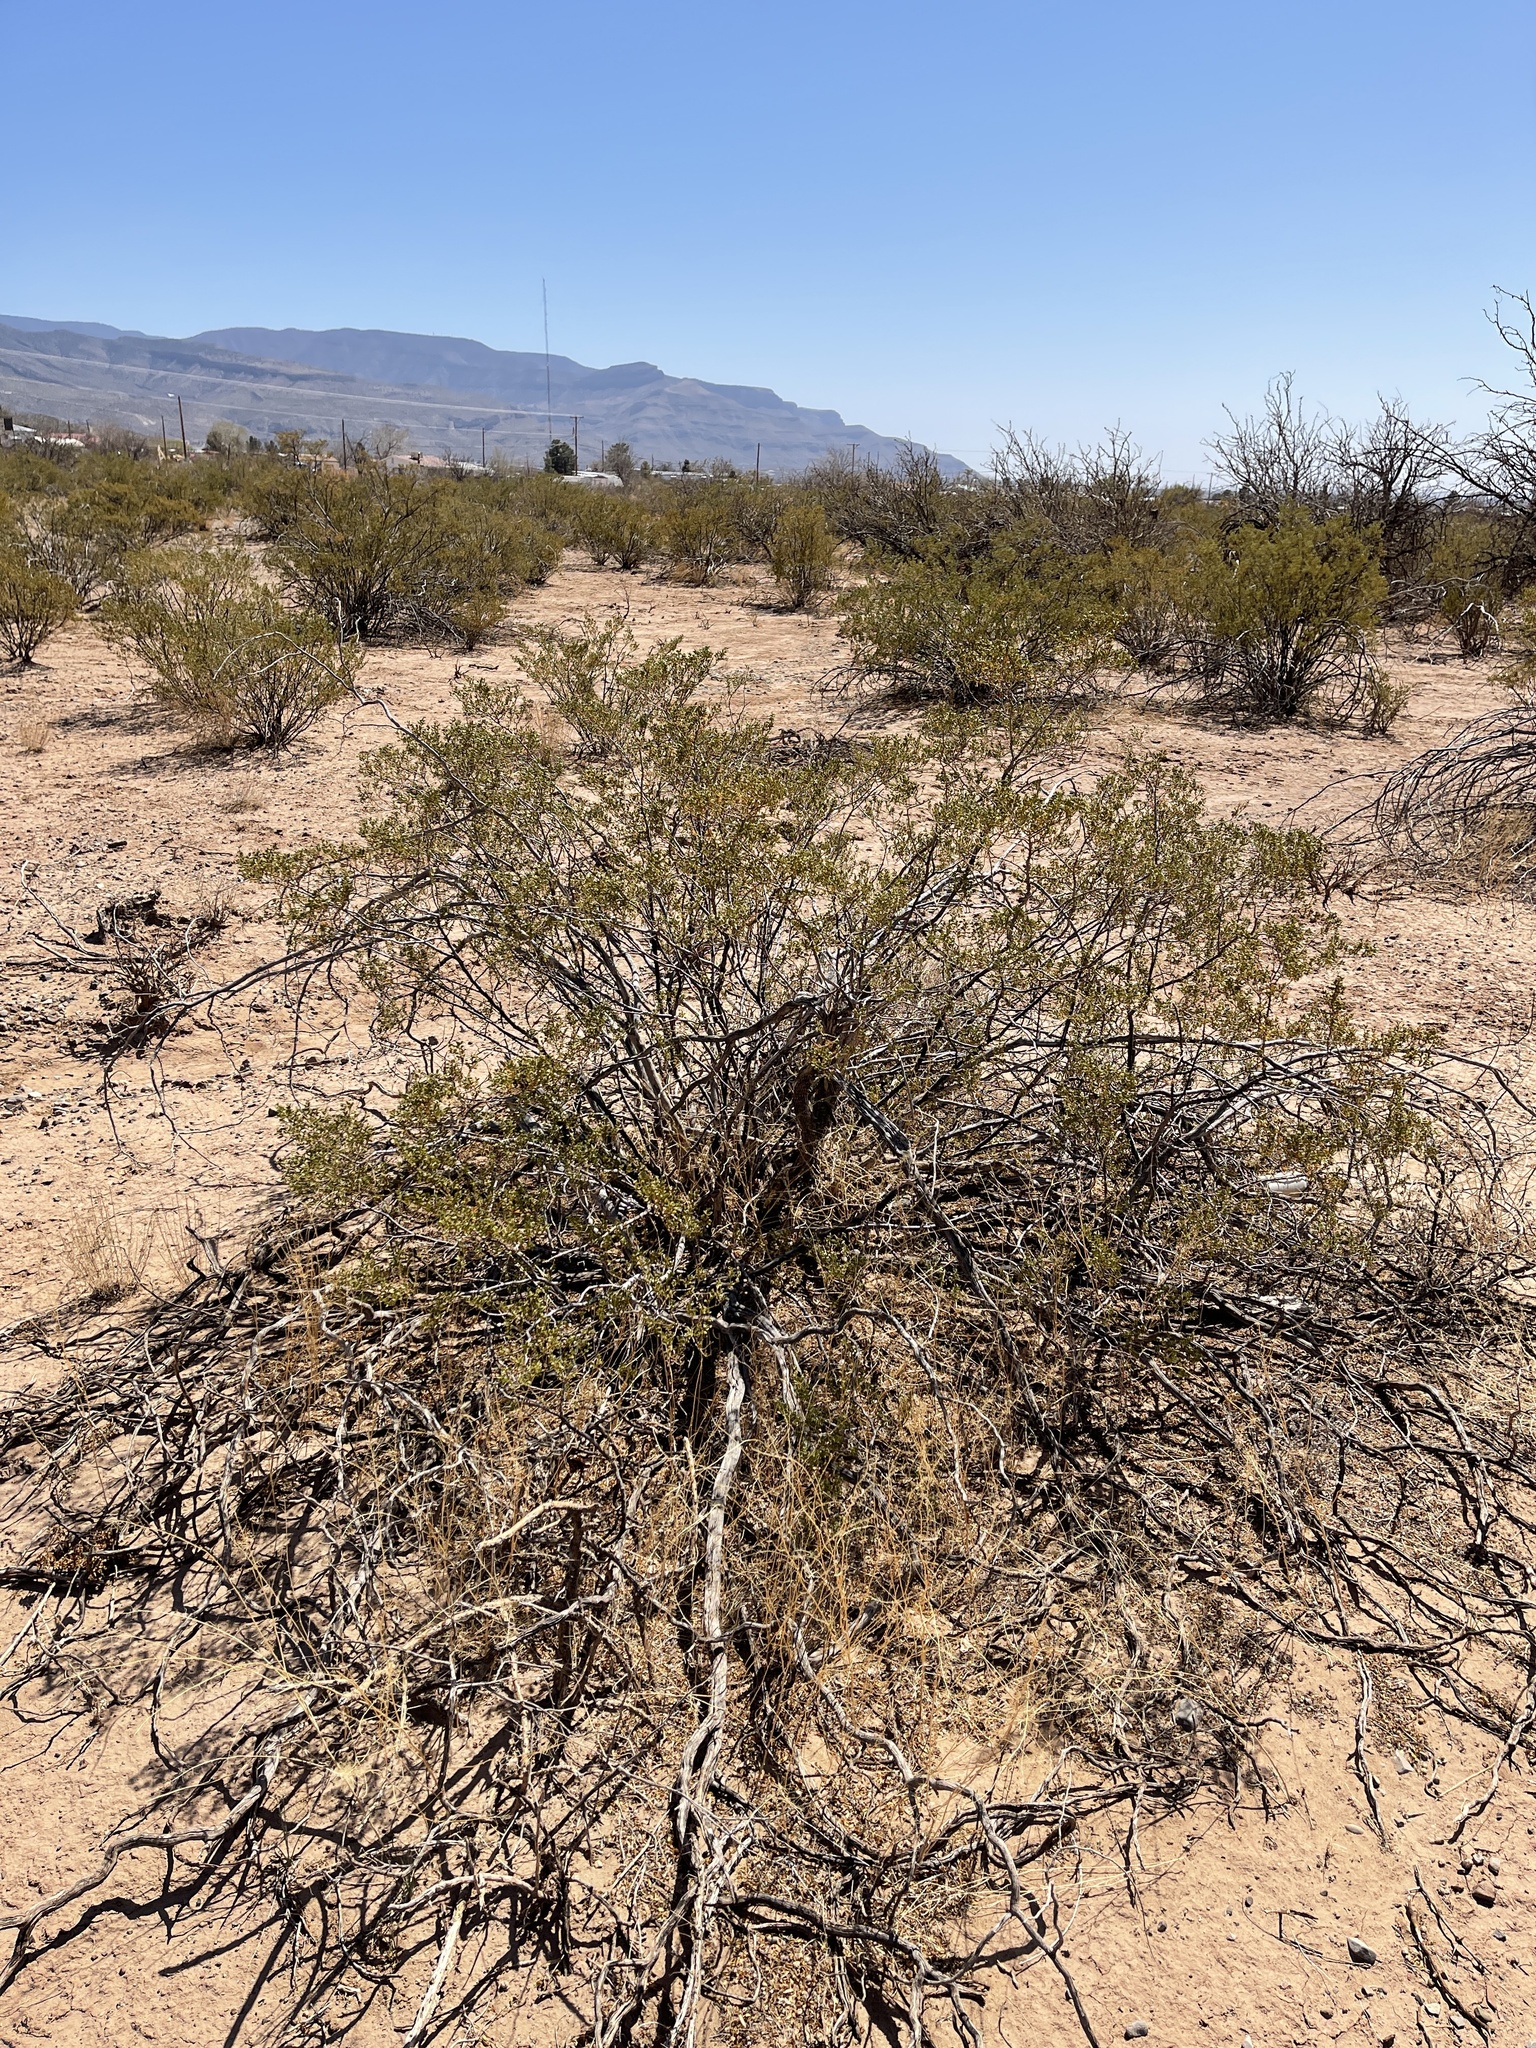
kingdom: Plantae
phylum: Tracheophyta
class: Magnoliopsida
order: Zygophyllales
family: Zygophyllaceae
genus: Larrea
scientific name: Larrea tridentata
